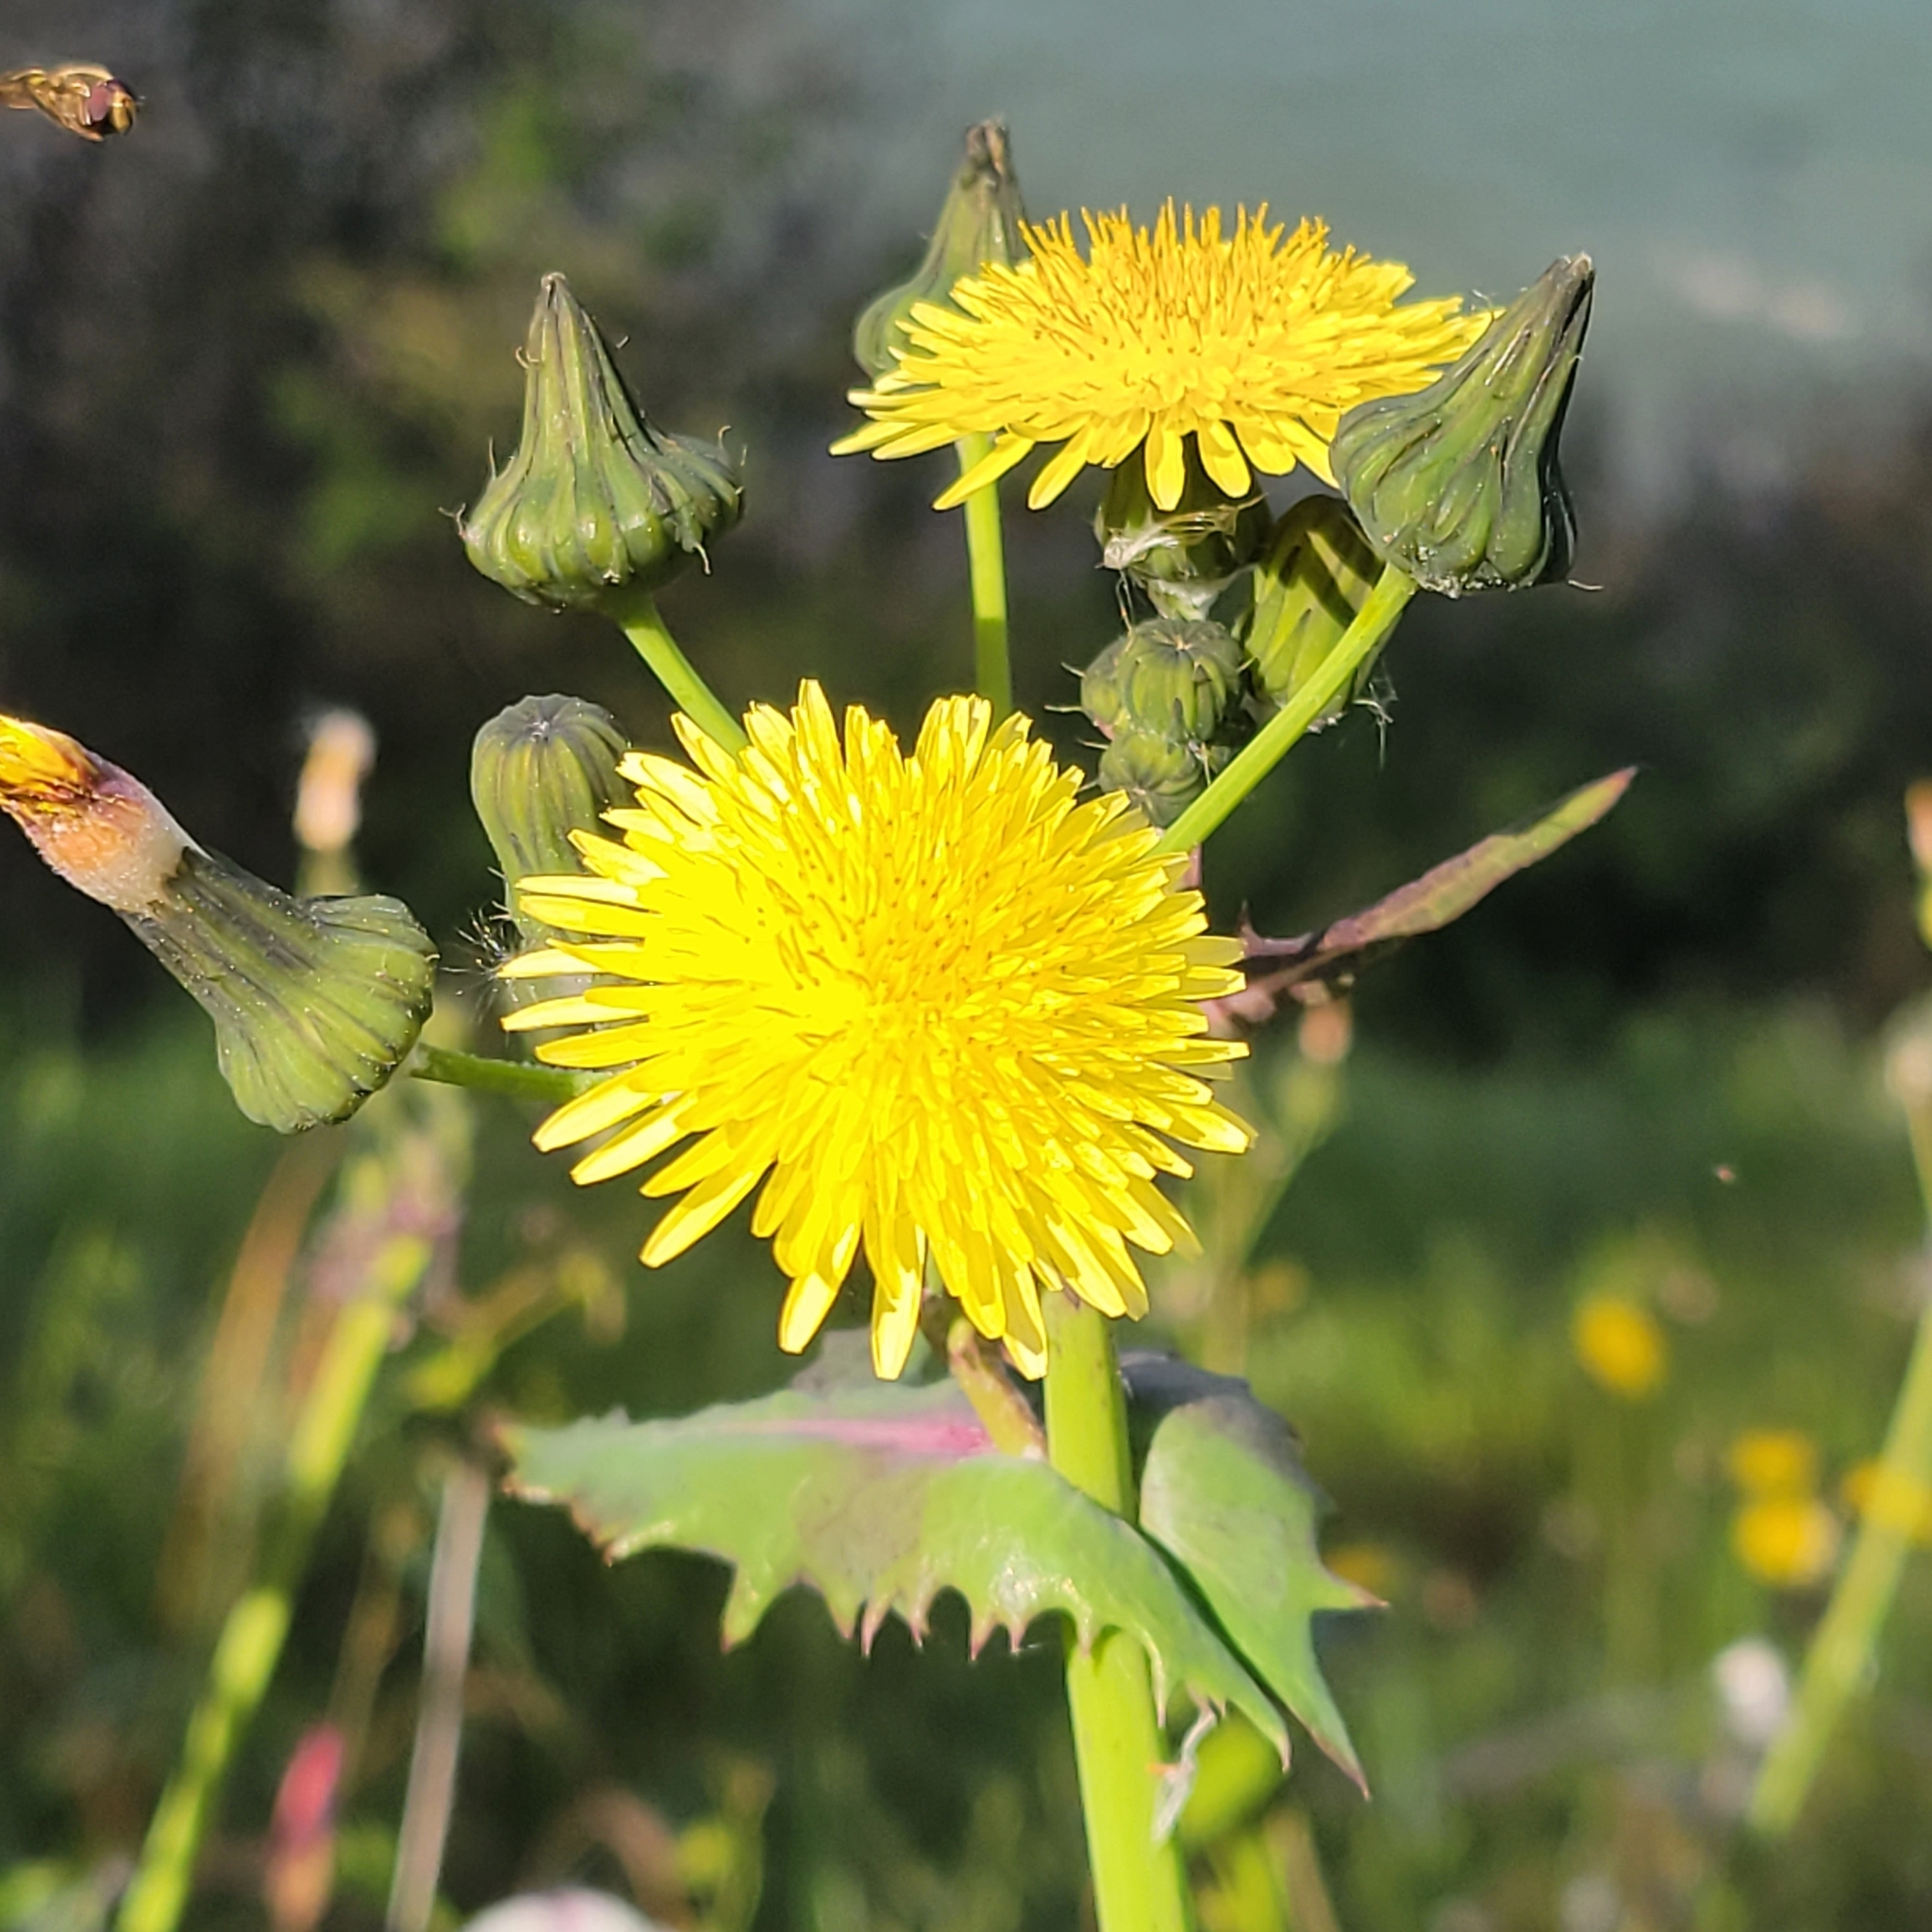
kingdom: Plantae
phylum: Tracheophyta
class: Magnoliopsida
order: Asterales
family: Asteraceae
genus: Sonchus
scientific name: Sonchus oleraceus
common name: Common sowthistle
